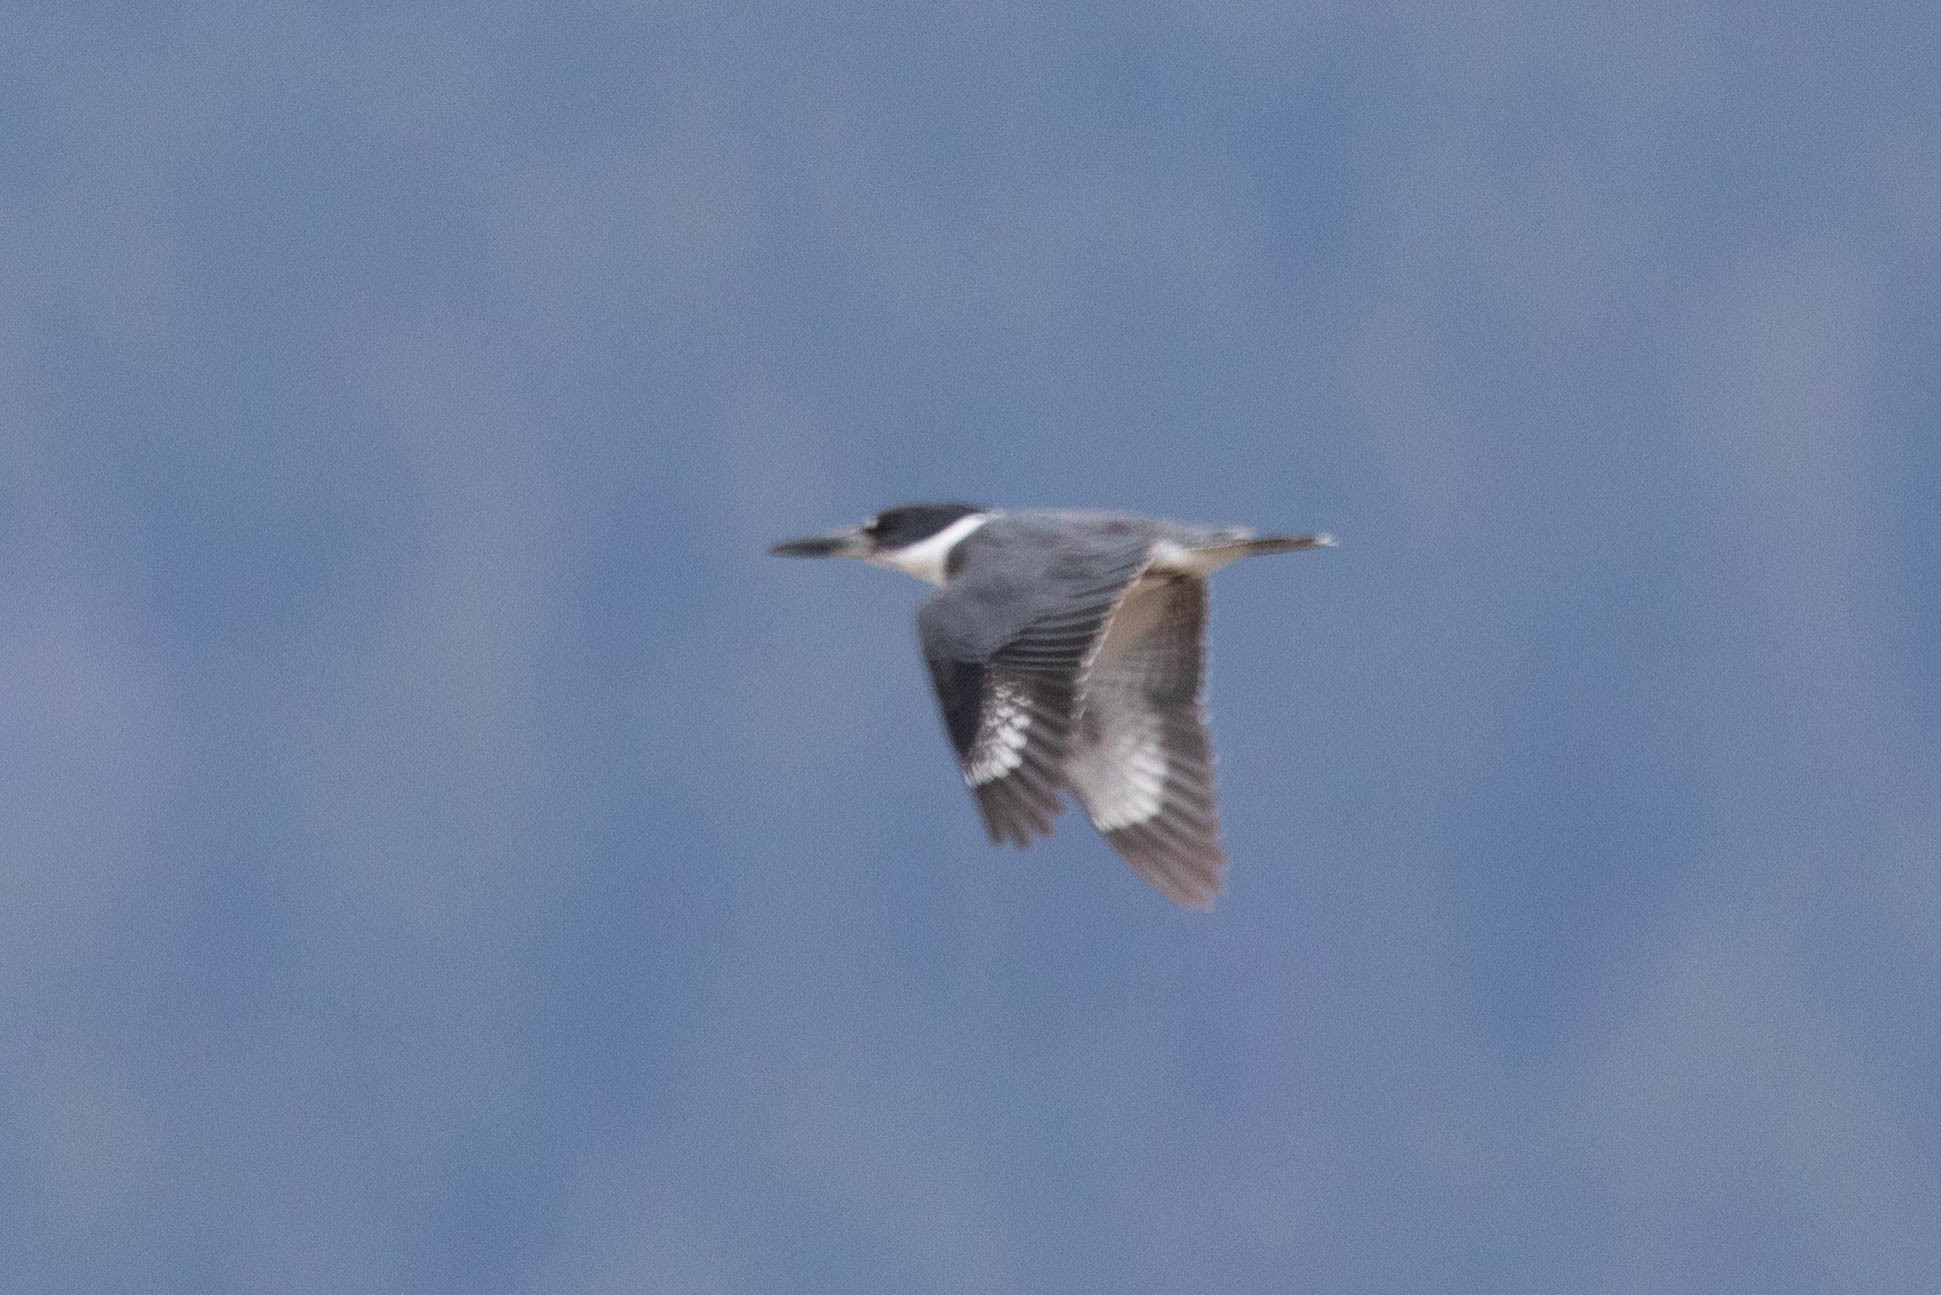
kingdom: Animalia
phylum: Chordata
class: Aves
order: Coraciiformes
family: Alcedinidae
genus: Megaceryle
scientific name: Megaceryle alcyon
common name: Belted kingfisher
